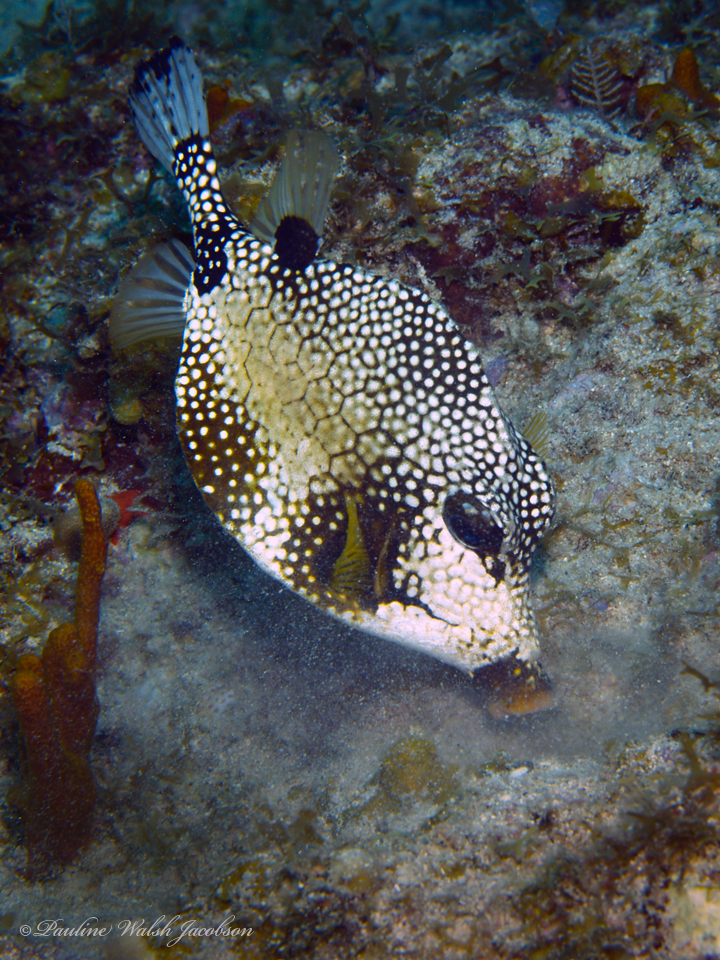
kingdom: Animalia
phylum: Chordata
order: Tetraodontiformes
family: Ostraciidae
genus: Lactophrys
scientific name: Lactophrys triqueter
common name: Smooth trunkfish
